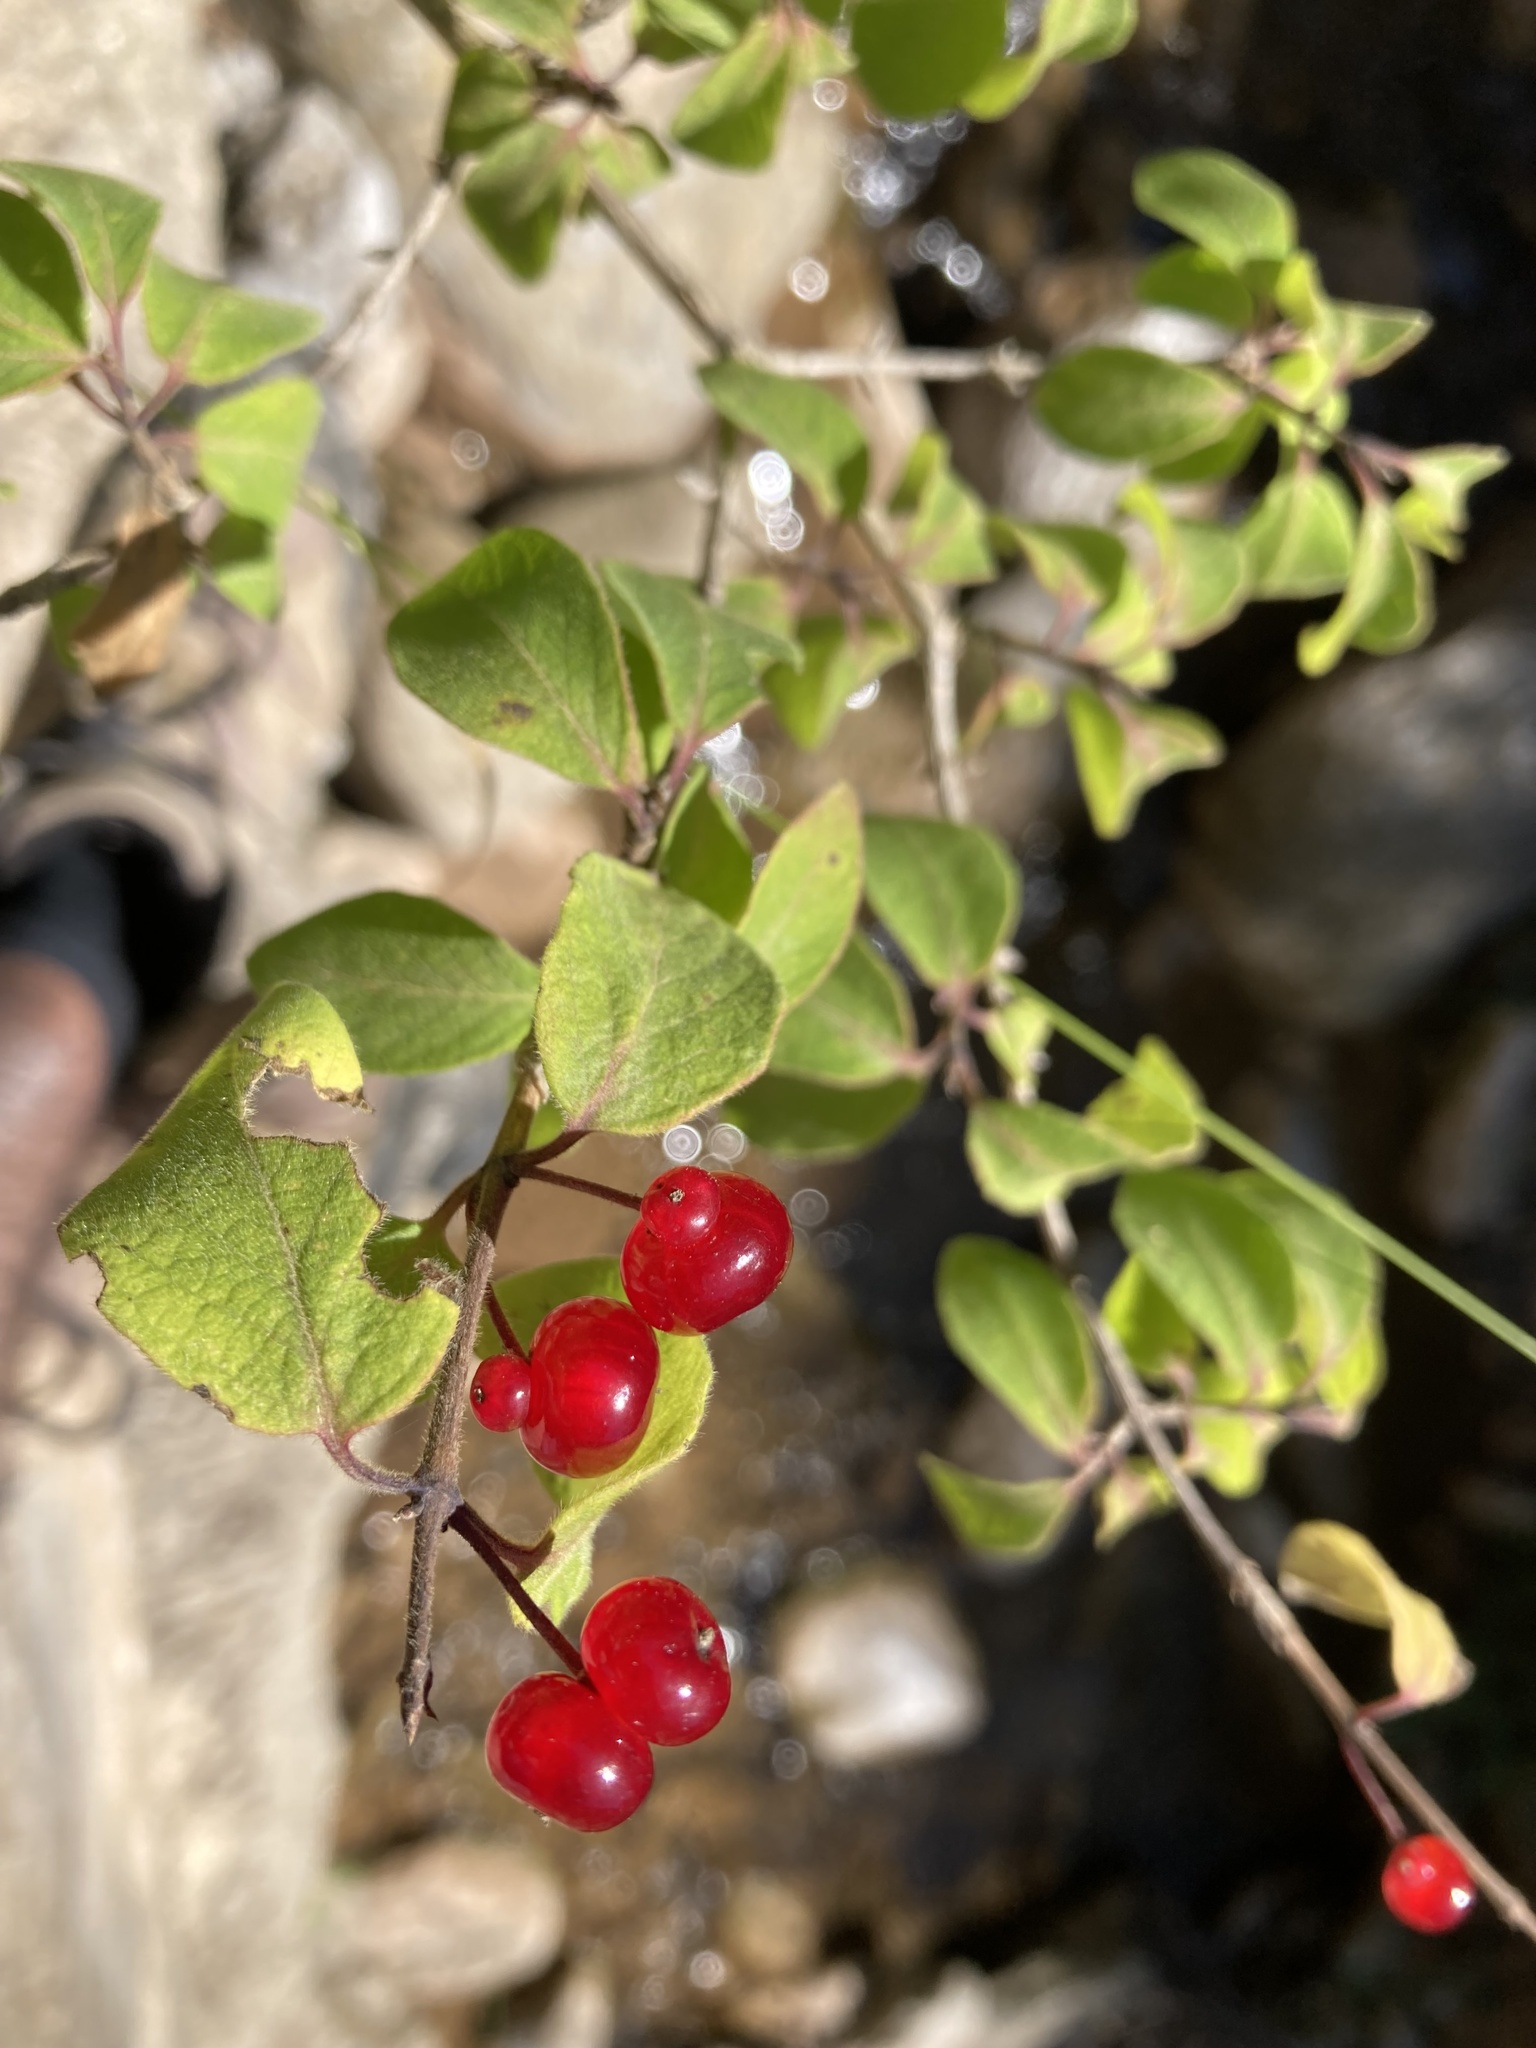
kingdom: Plantae
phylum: Tracheophyta
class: Magnoliopsida
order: Dipsacales
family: Caprifoliaceae
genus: Lonicera
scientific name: Lonicera xylosteum
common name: Fly honeysuckle
